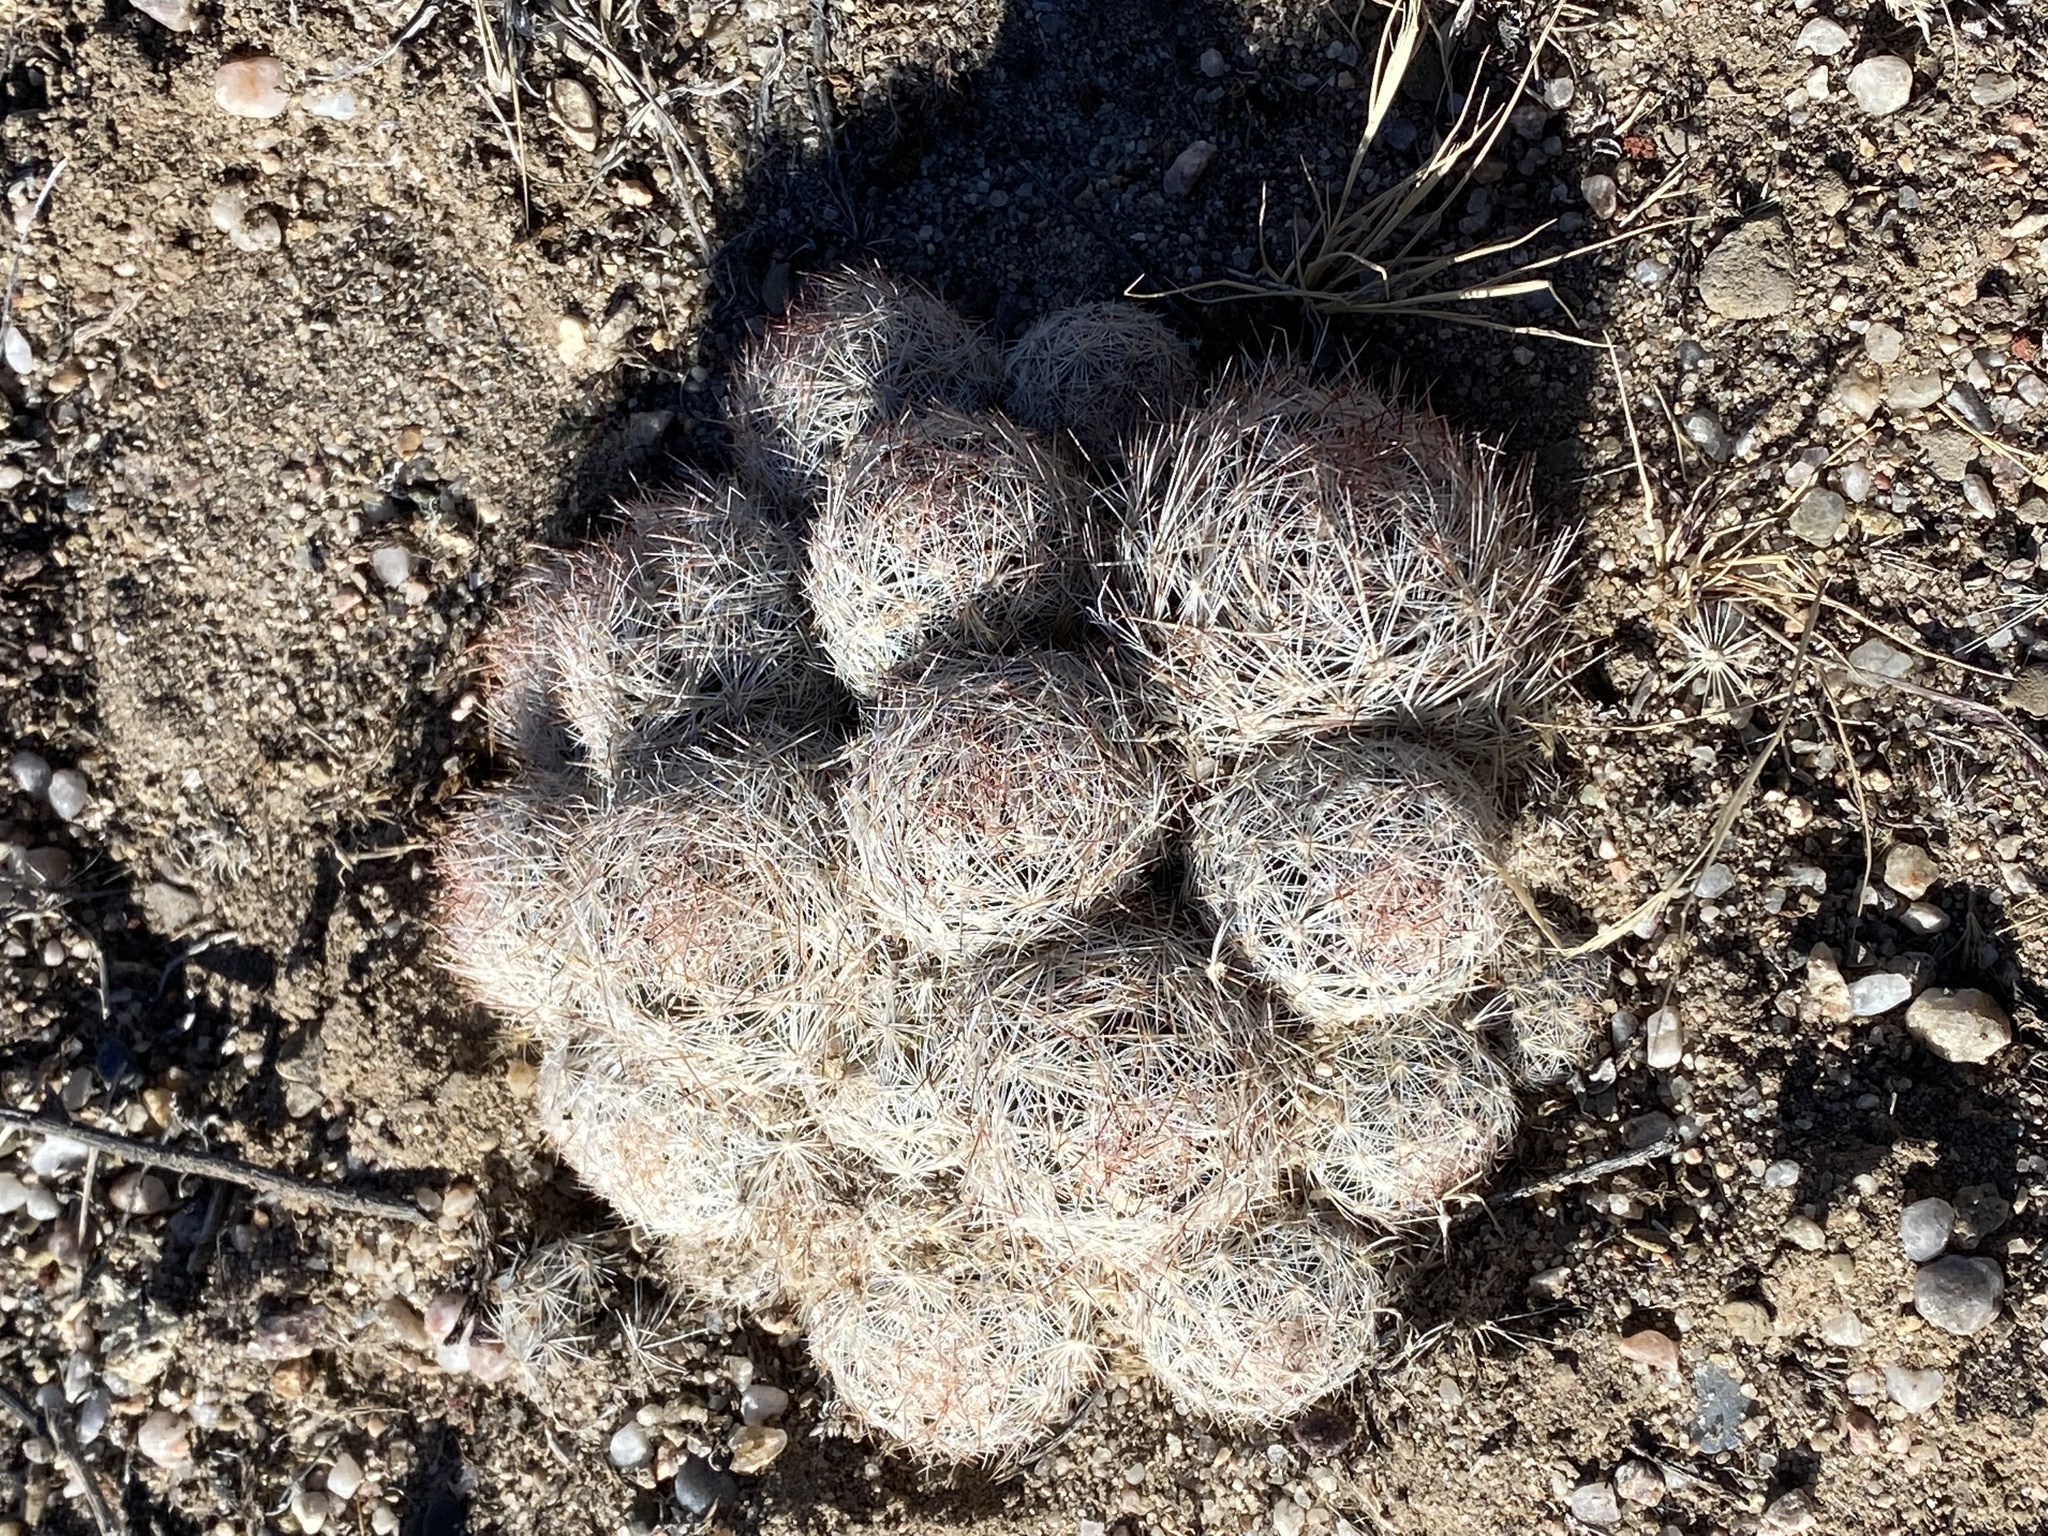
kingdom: Plantae
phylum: Tracheophyta
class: Magnoliopsida
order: Caryophyllales
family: Cactaceae
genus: Pelecyphora
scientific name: Pelecyphora vivipara
